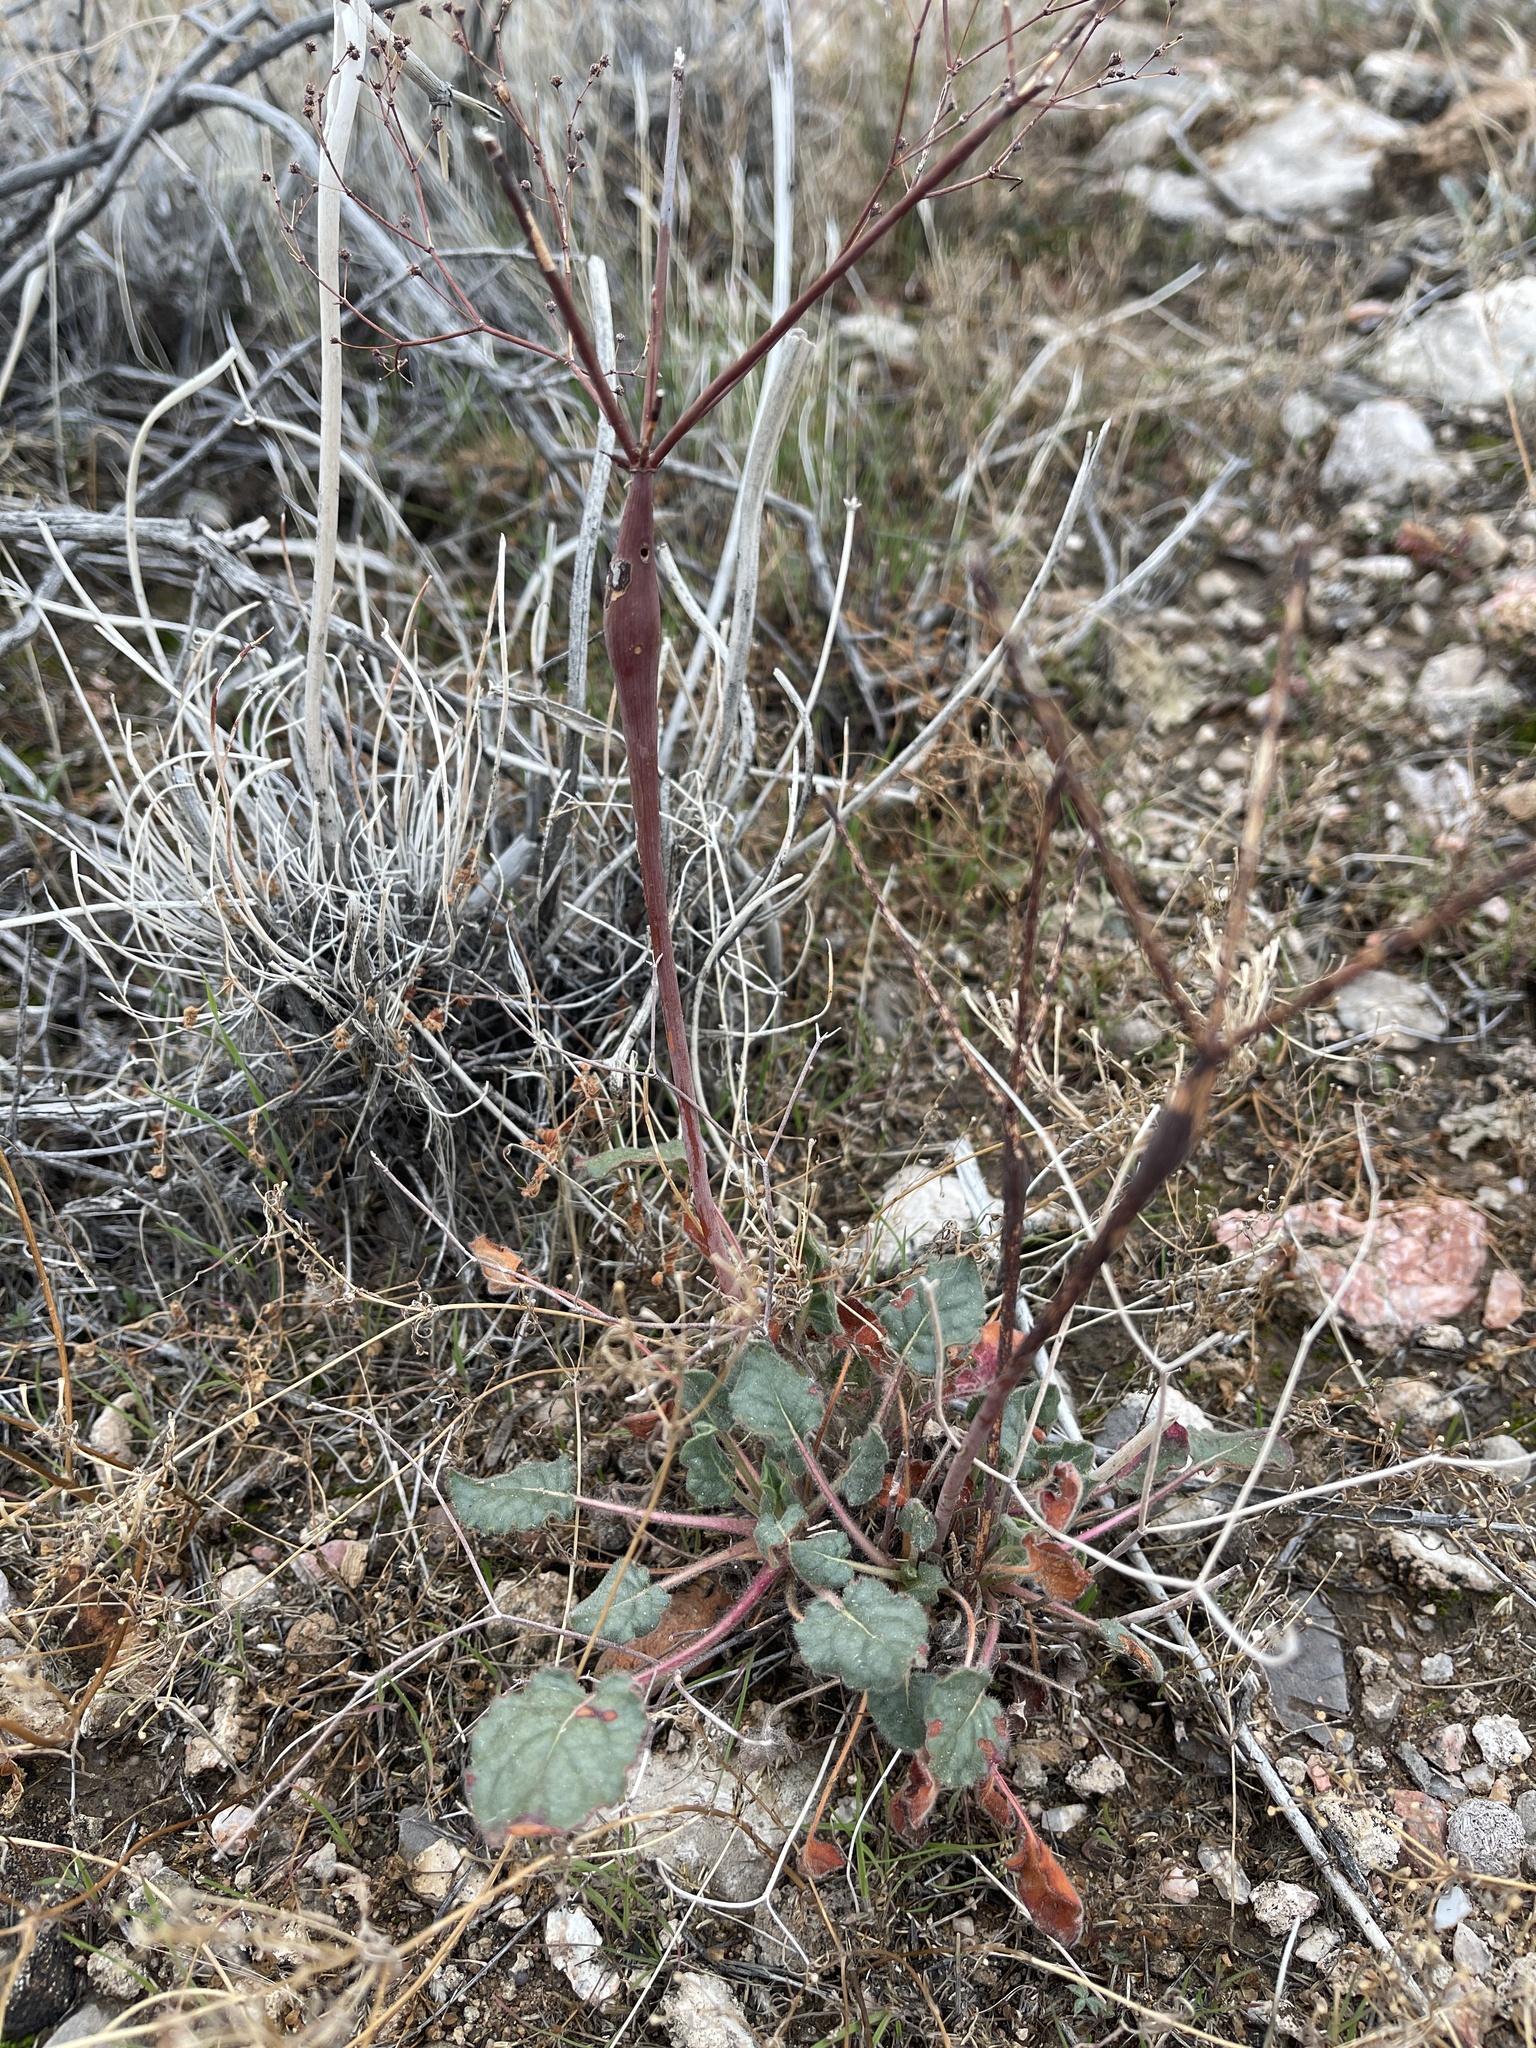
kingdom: Plantae
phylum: Tracheophyta
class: Magnoliopsida
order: Caryophyllales
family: Polygonaceae
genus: Eriogonum
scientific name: Eriogonum inflatum
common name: Desert trumpet
